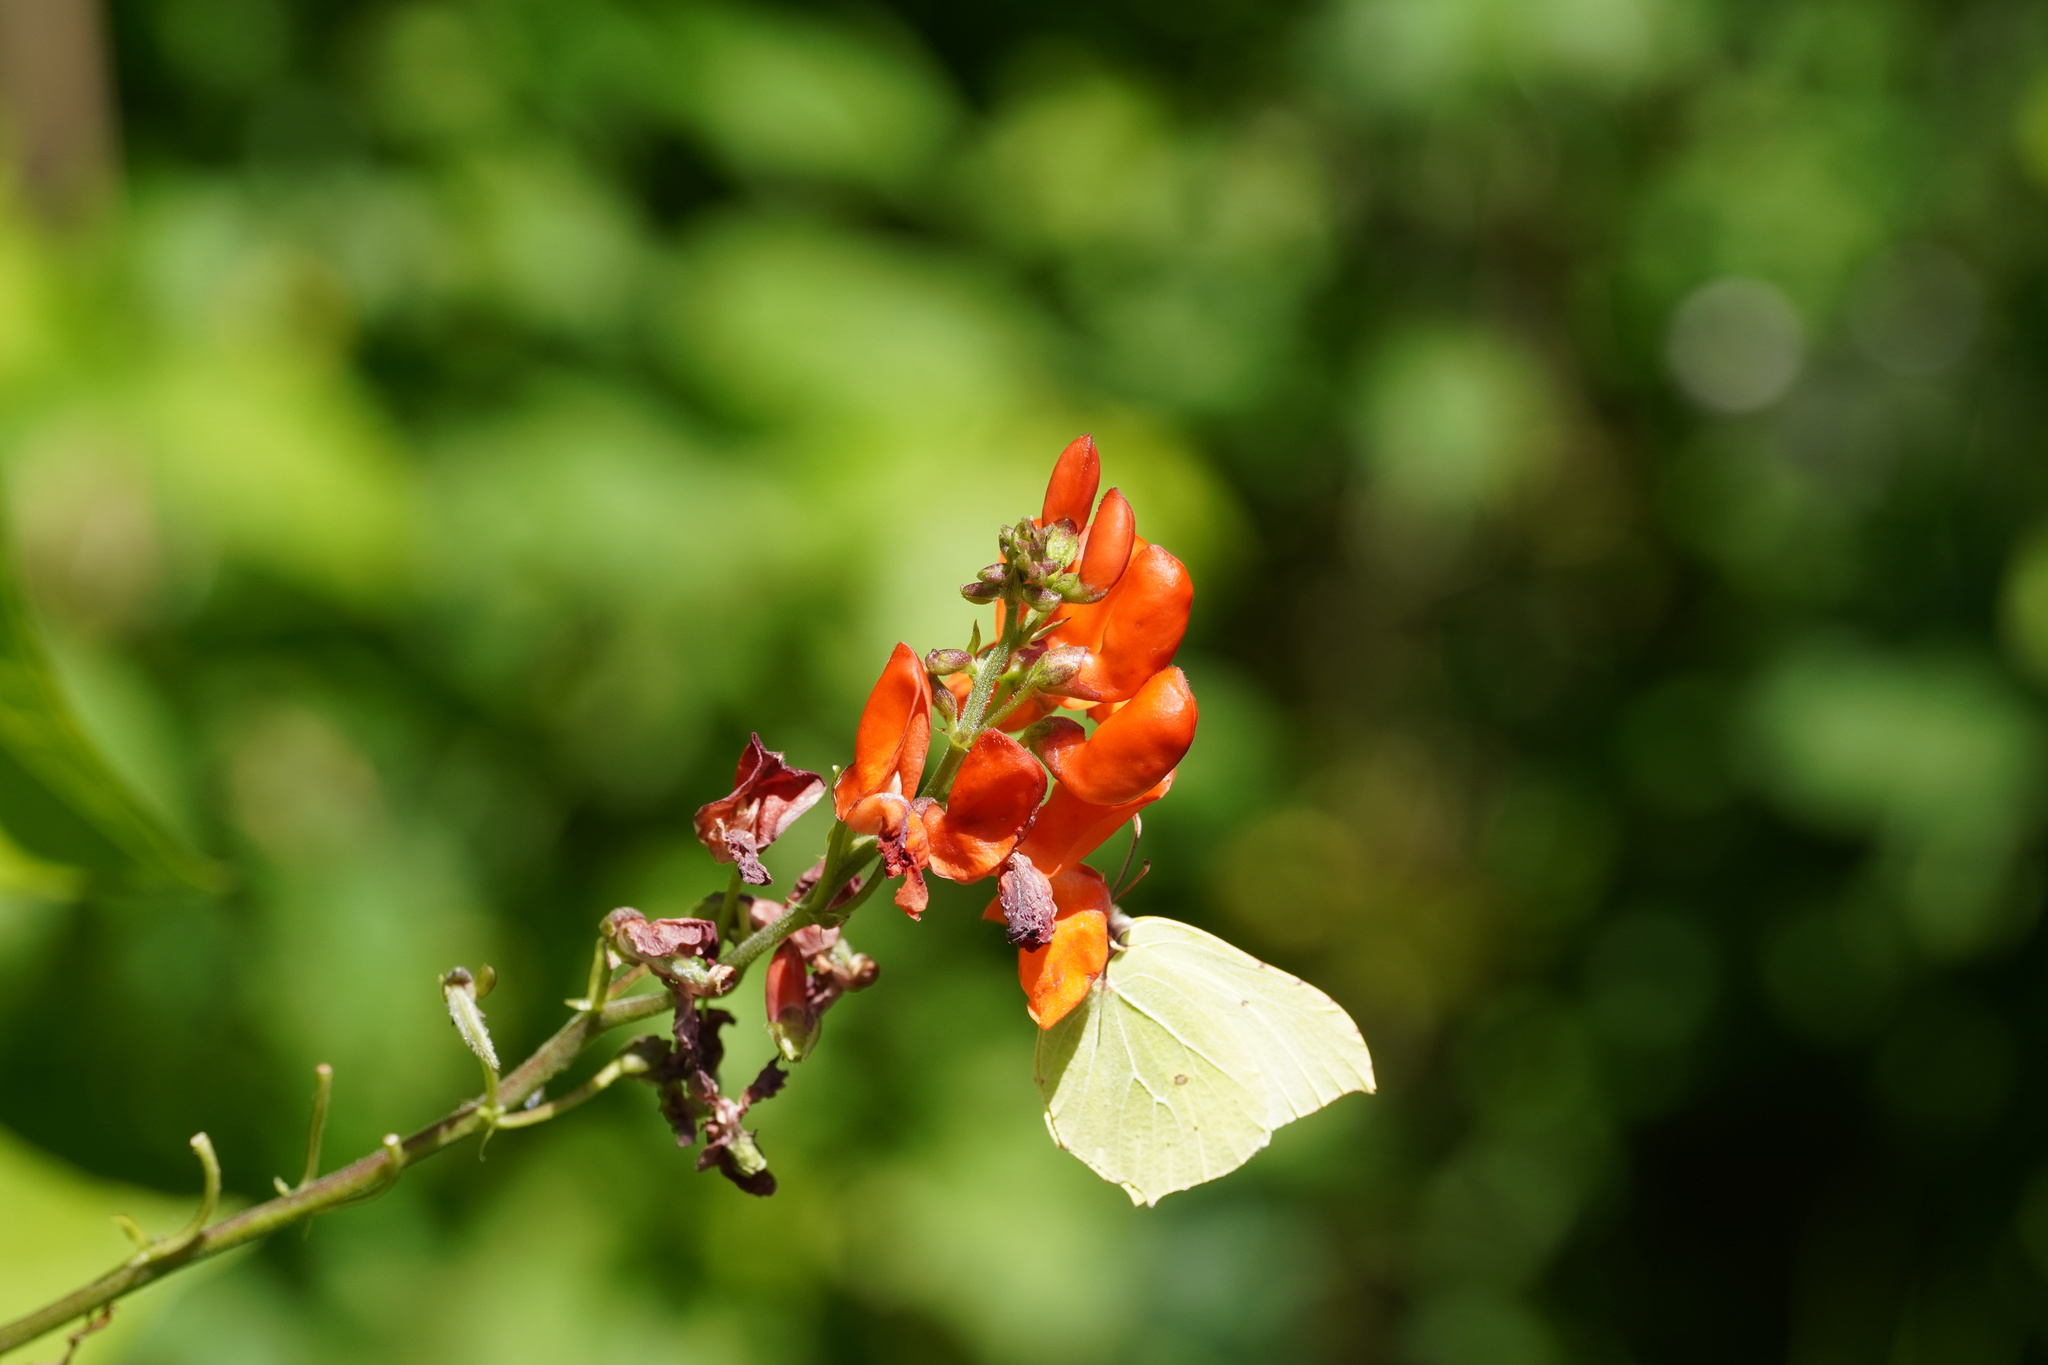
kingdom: Animalia
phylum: Arthropoda
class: Insecta
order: Lepidoptera
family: Pieridae
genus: Gonepteryx
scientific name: Gonepteryx rhamni
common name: Brimstone
